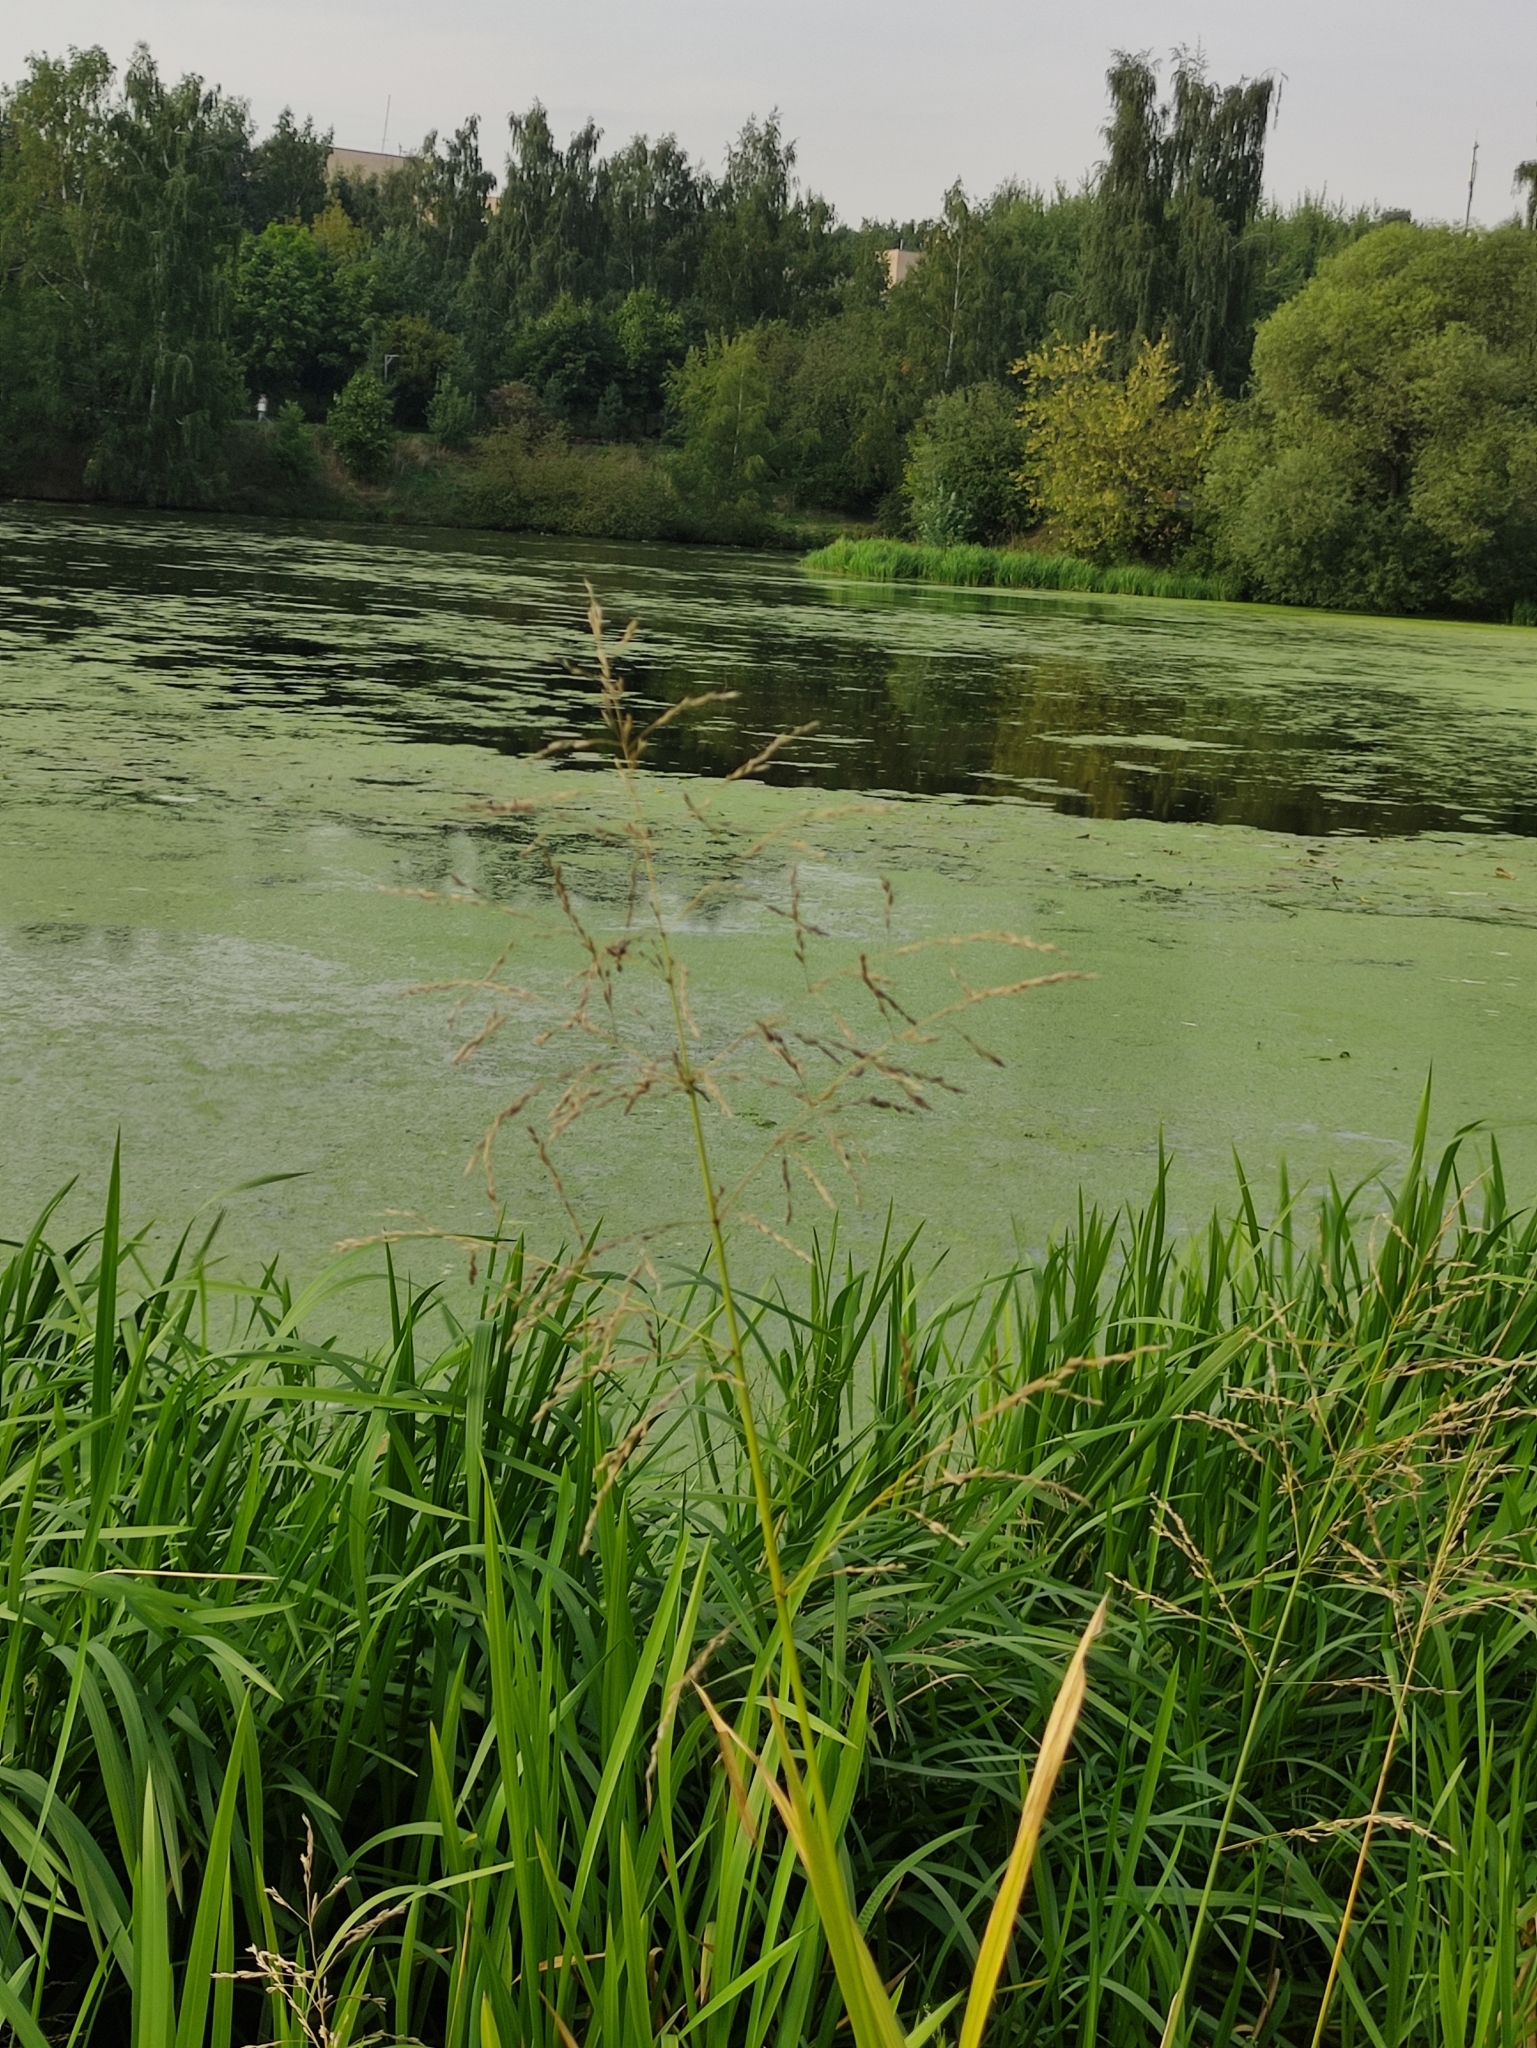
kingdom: Plantae
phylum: Tracheophyta
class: Liliopsida
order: Poales
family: Poaceae
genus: Glyceria
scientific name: Glyceria maxima
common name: Reed mannagrass
